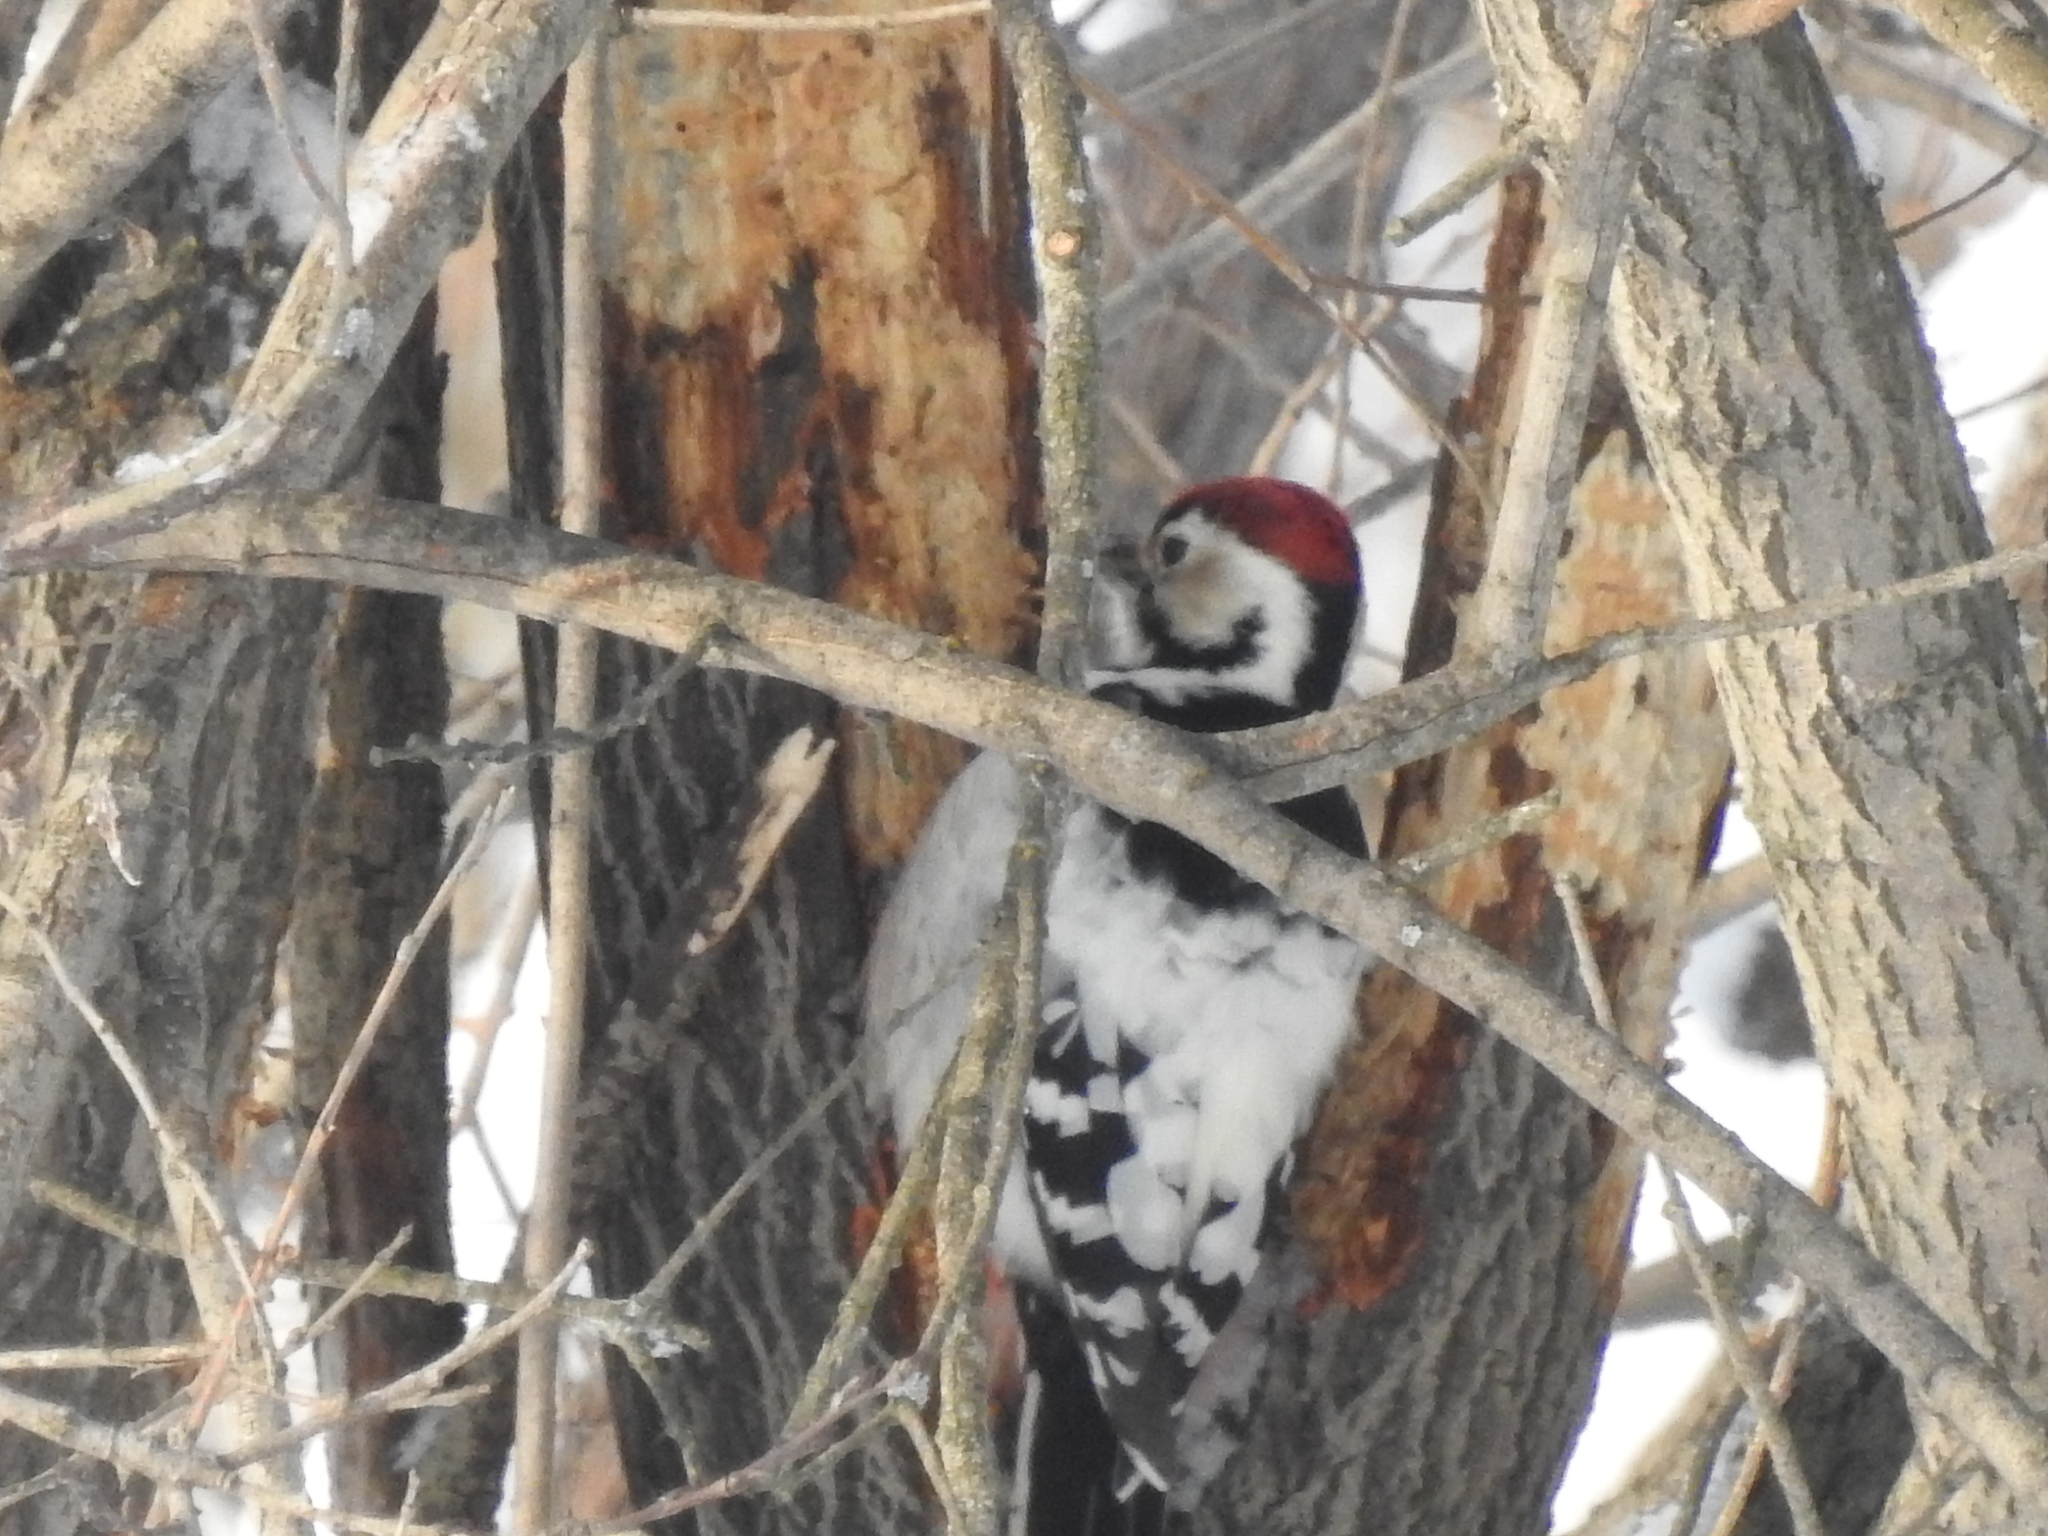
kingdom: Animalia
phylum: Chordata
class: Aves
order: Piciformes
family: Picidae
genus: Dendrocopos
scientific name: Dendrocopos leucotos
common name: White-backed woodpecker
